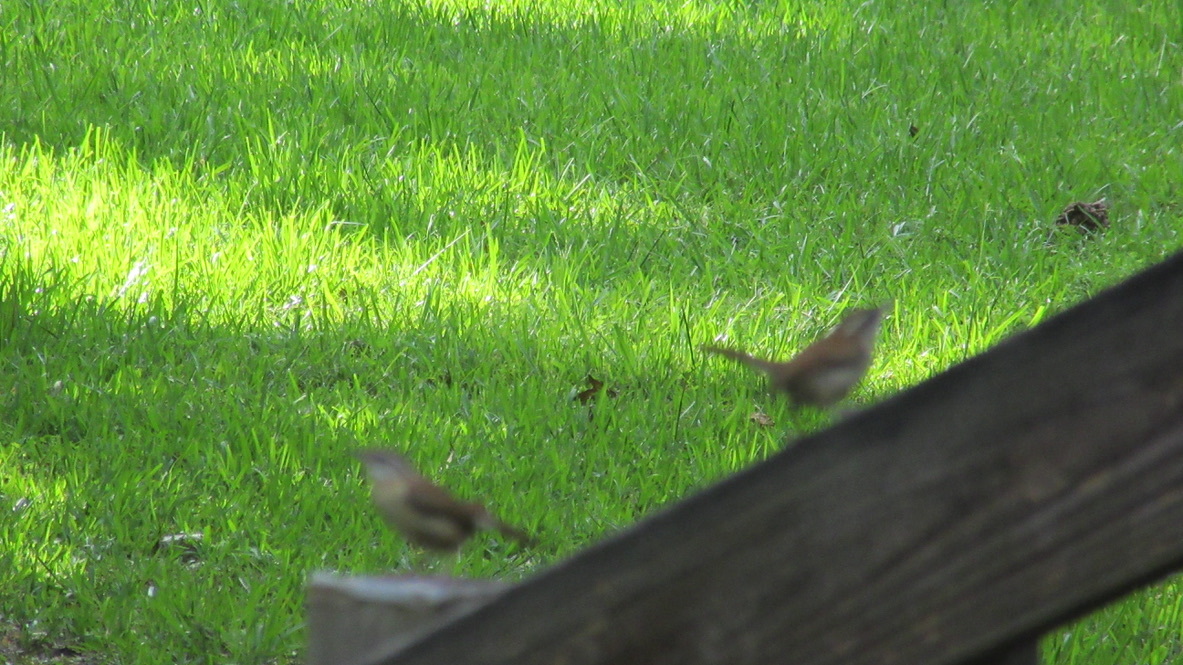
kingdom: Animalia
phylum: Chordata
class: Aves
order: Passeriformes
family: Troglodytidae
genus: Thryothorus
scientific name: Thryothorus ludovicianus
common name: Carolina wren
